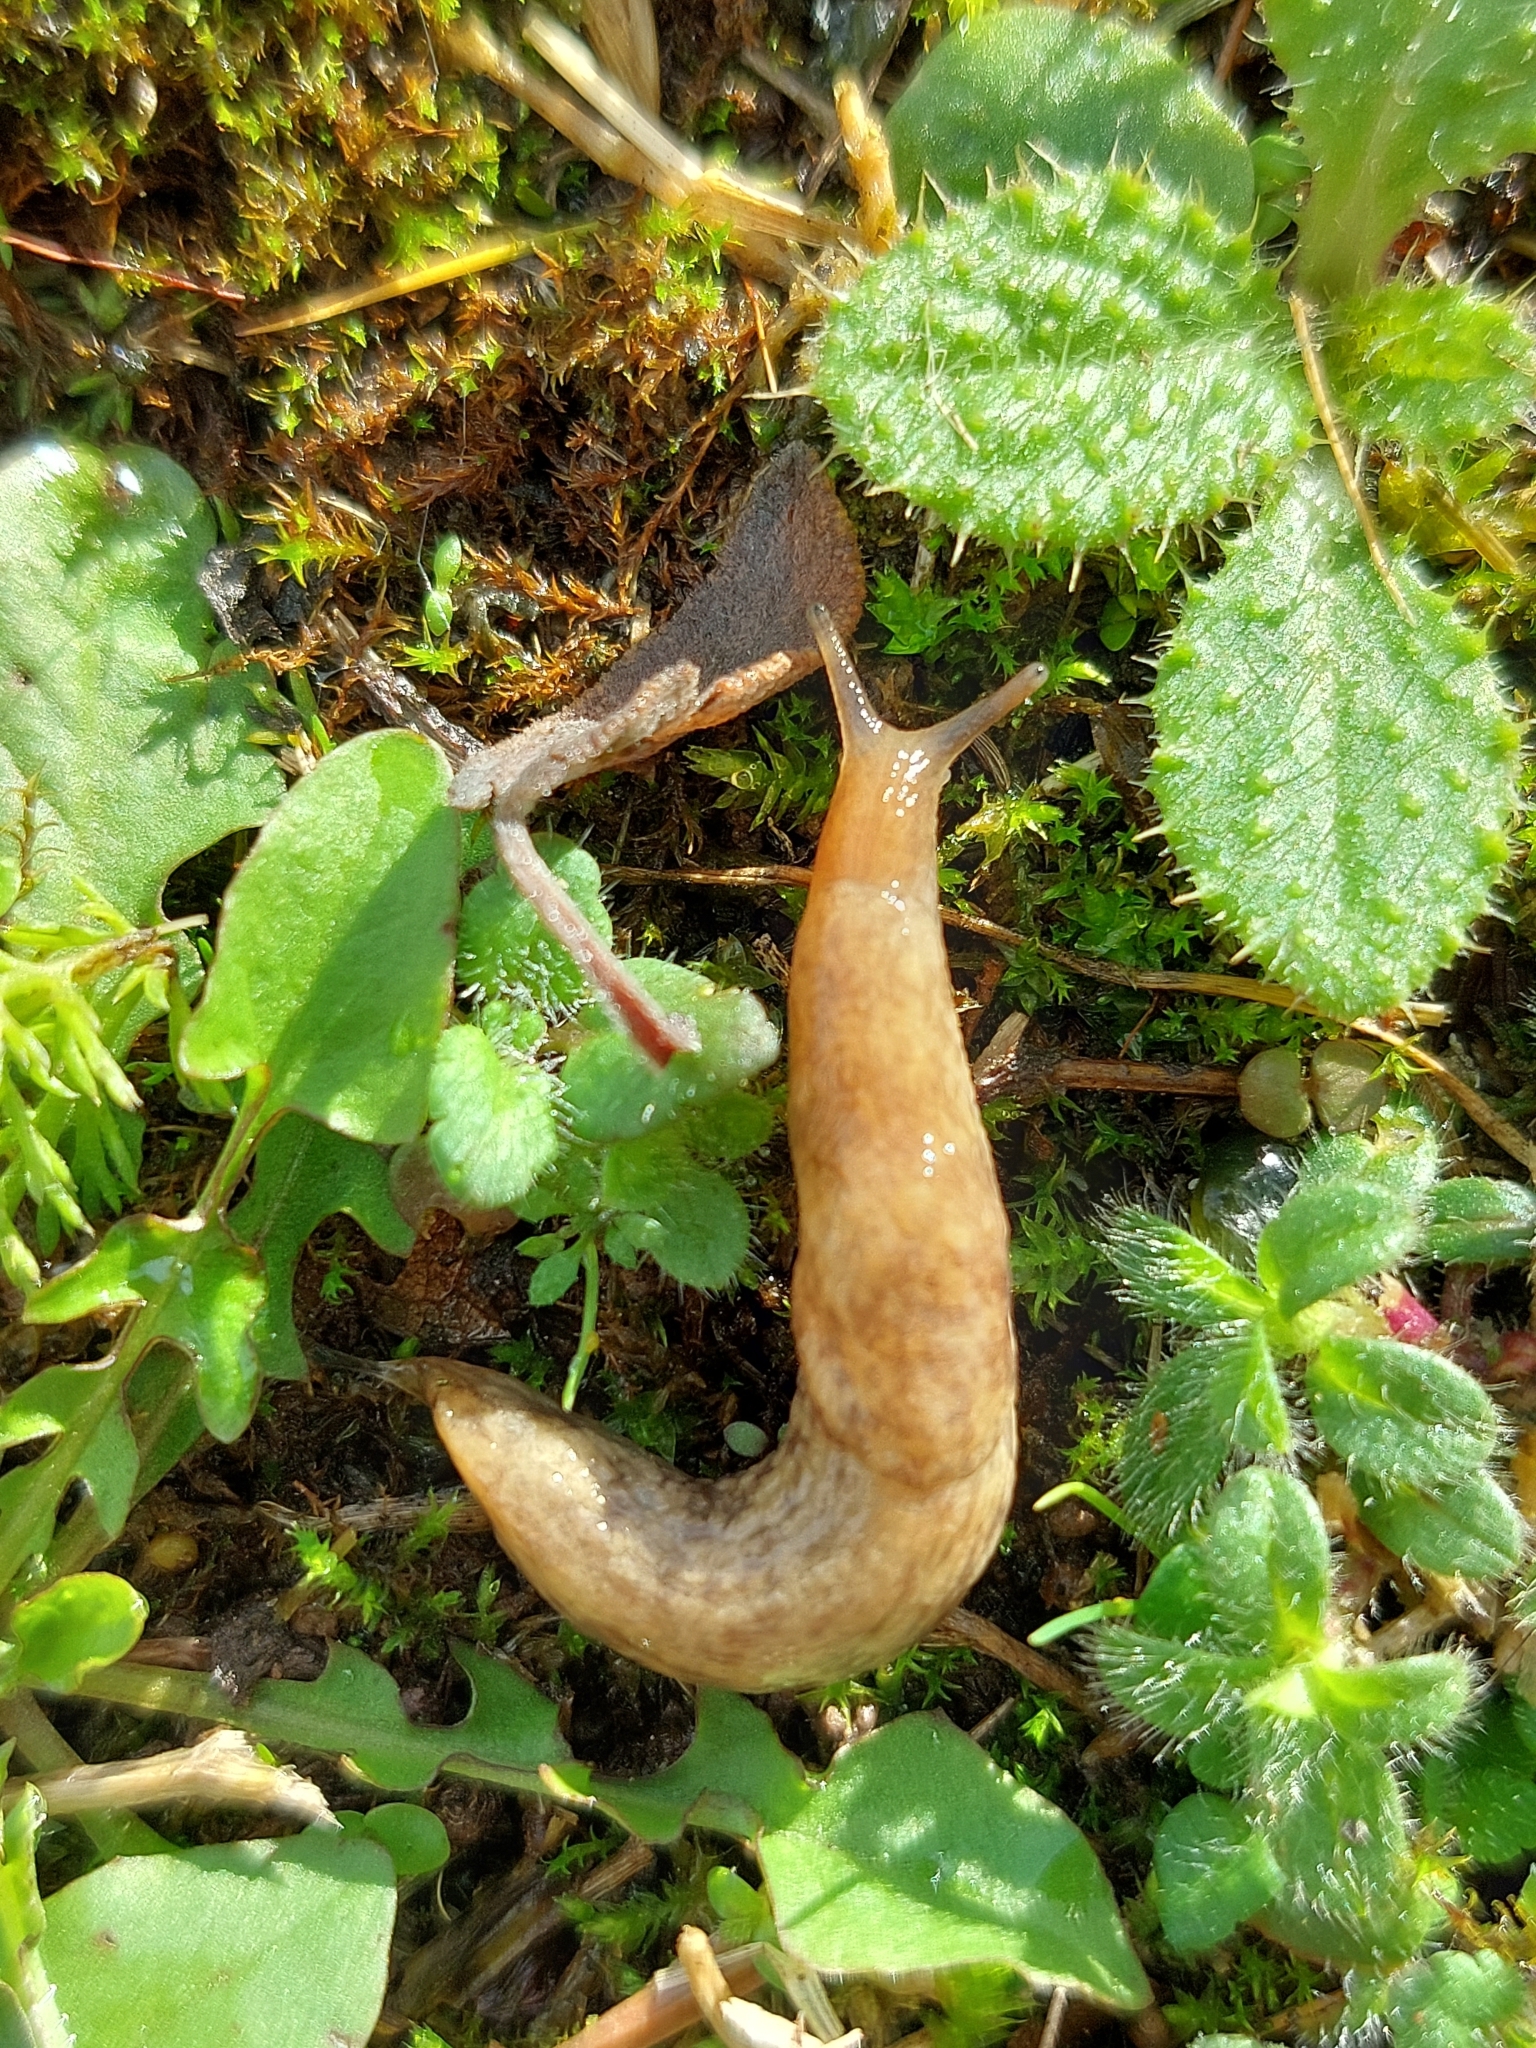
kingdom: Animalia
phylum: Mollusca
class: Gastropoda
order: Stylommatophora
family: Agriolimacidae
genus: Deroceras
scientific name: Deroceras reticulatum
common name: Gray field slug
